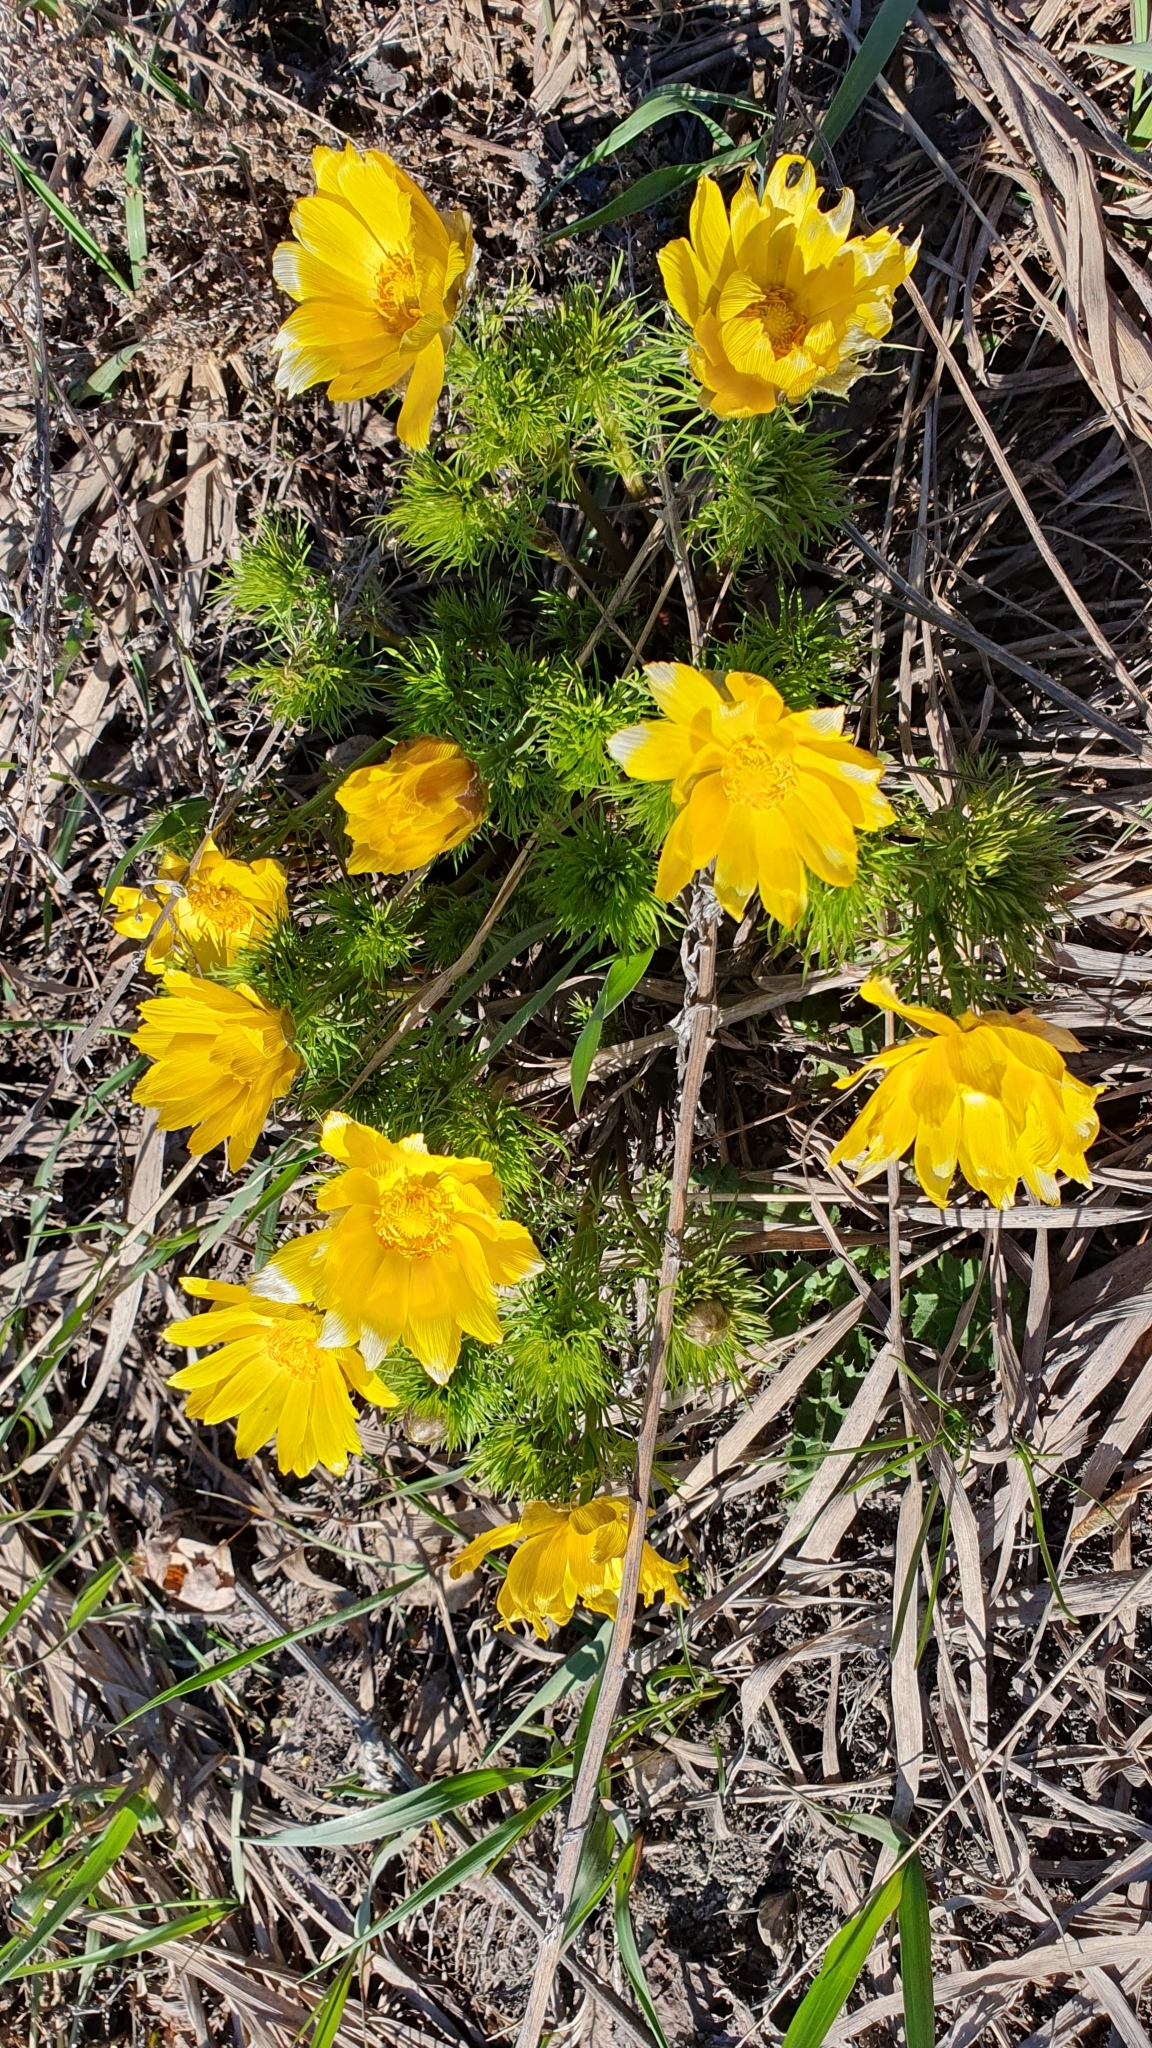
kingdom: Plantae
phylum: Tracheophyta
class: Magnoliopsida
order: Ranunculales
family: Ranunculaceae
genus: Adonis
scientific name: Adonis vernalis
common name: Yellow pheasants-eye
